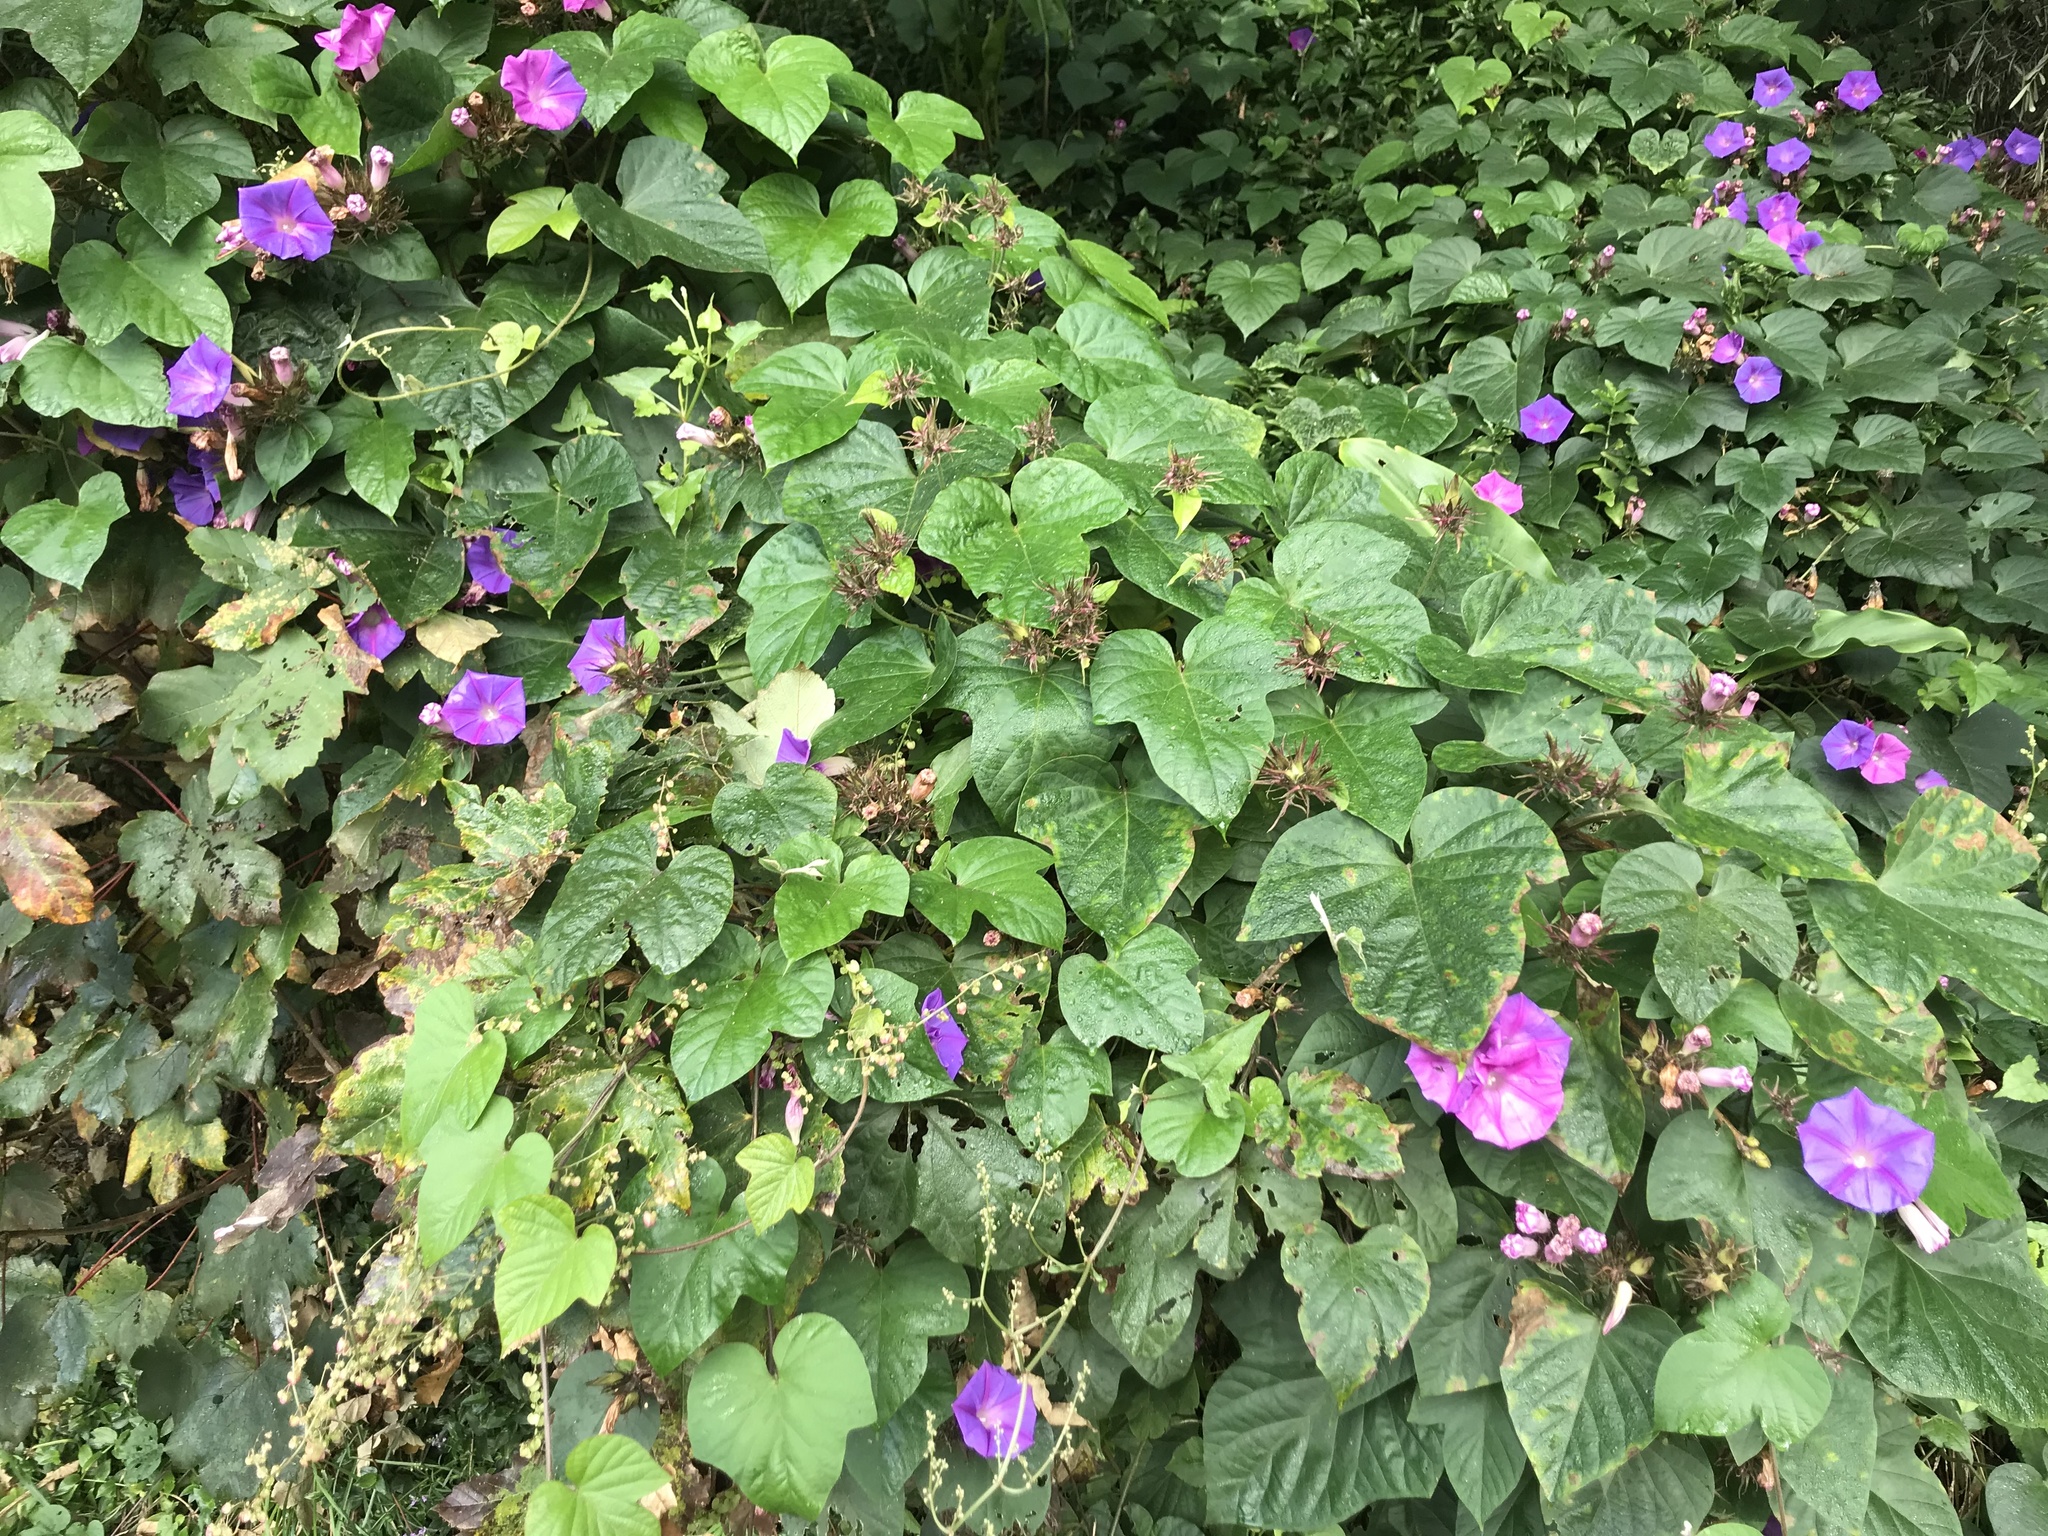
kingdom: Plantae
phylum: Tracheophyta
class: Magnoliopsida
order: Solanales
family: Convolvulaceae
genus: Ipomoea
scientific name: Ipomoea indica
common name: Blue dawnflower
